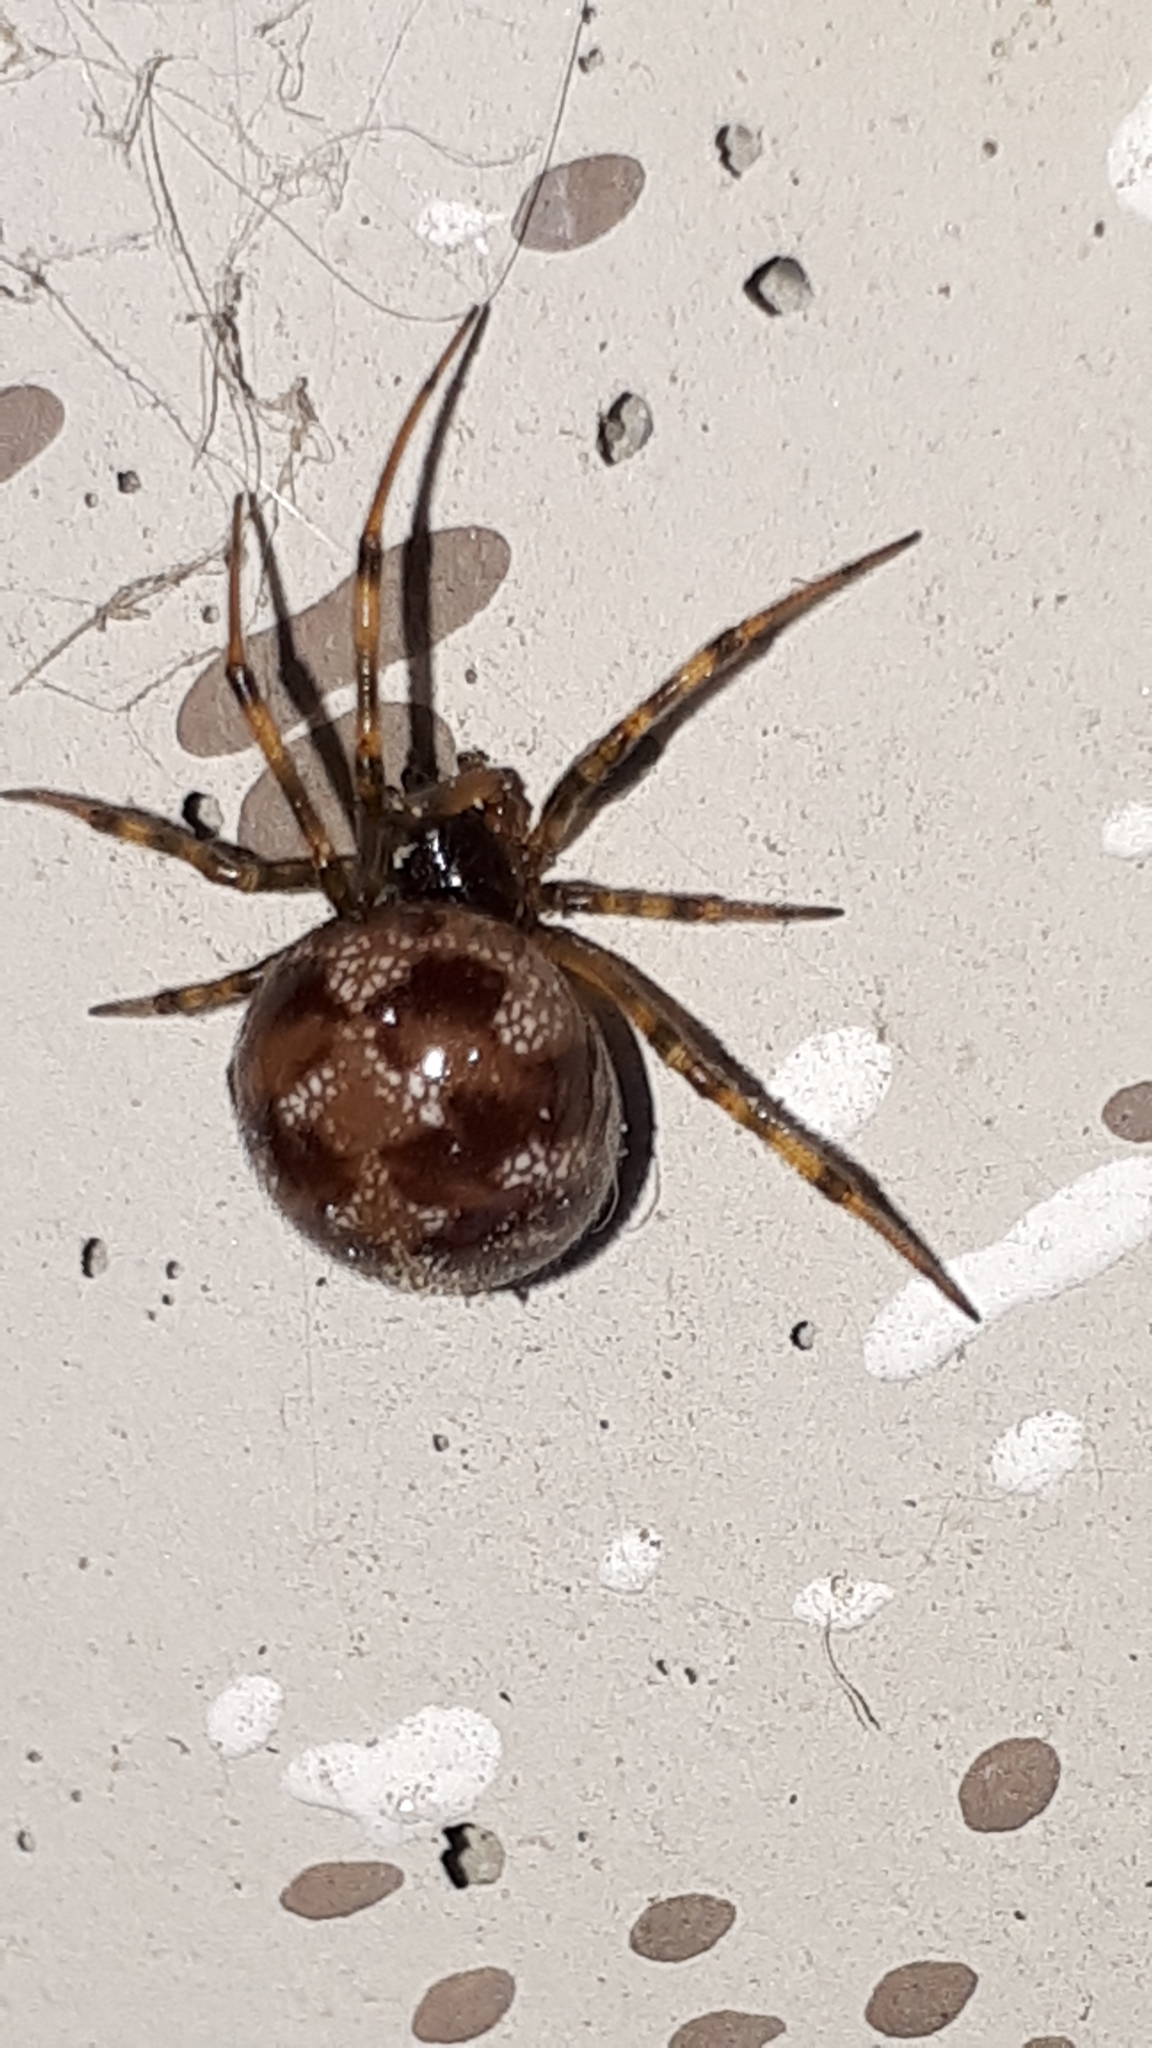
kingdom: Animalia
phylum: Arthropoda
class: Arachnida
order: Araneae
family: Theridiidae
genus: Steatoda
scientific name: Steatoda triangulosa
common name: Triangulate bud spider
